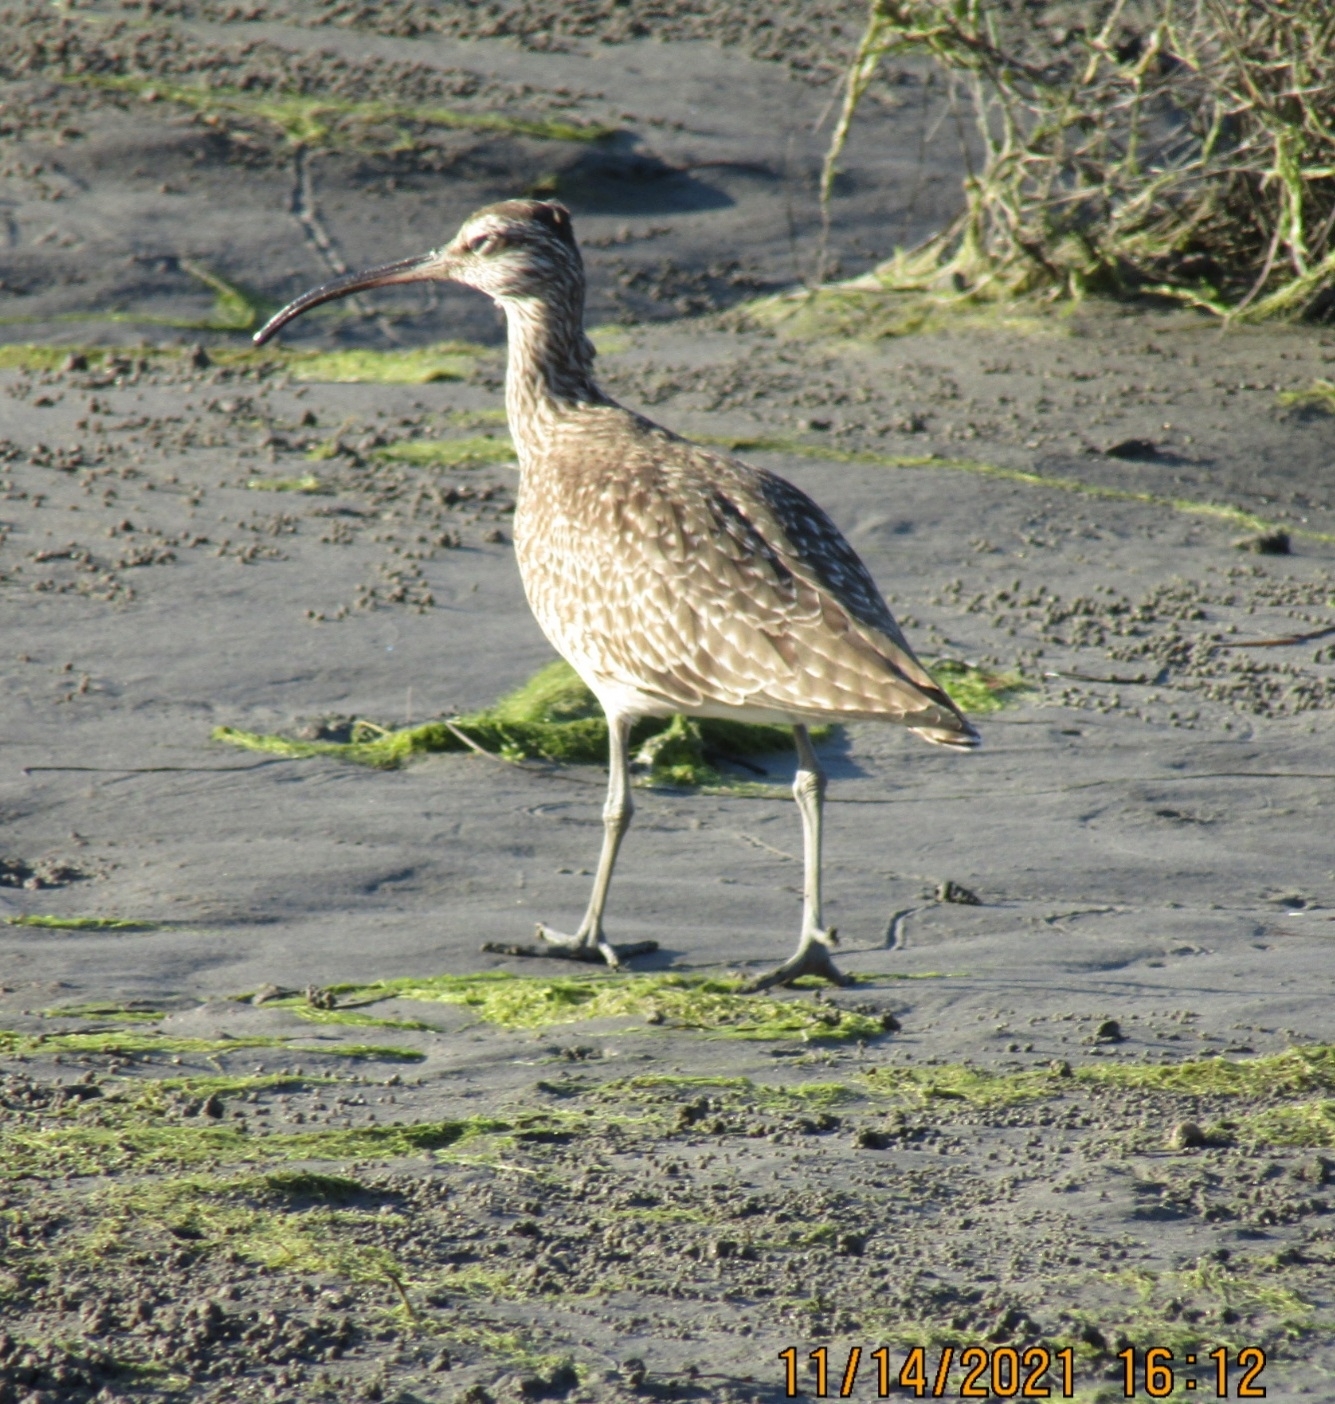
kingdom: Animalia
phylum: Chordata
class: Aves
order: Charadriiformes
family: Scolopacidae
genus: Numenius
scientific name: Numenius phaeopus
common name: Whimbrel
